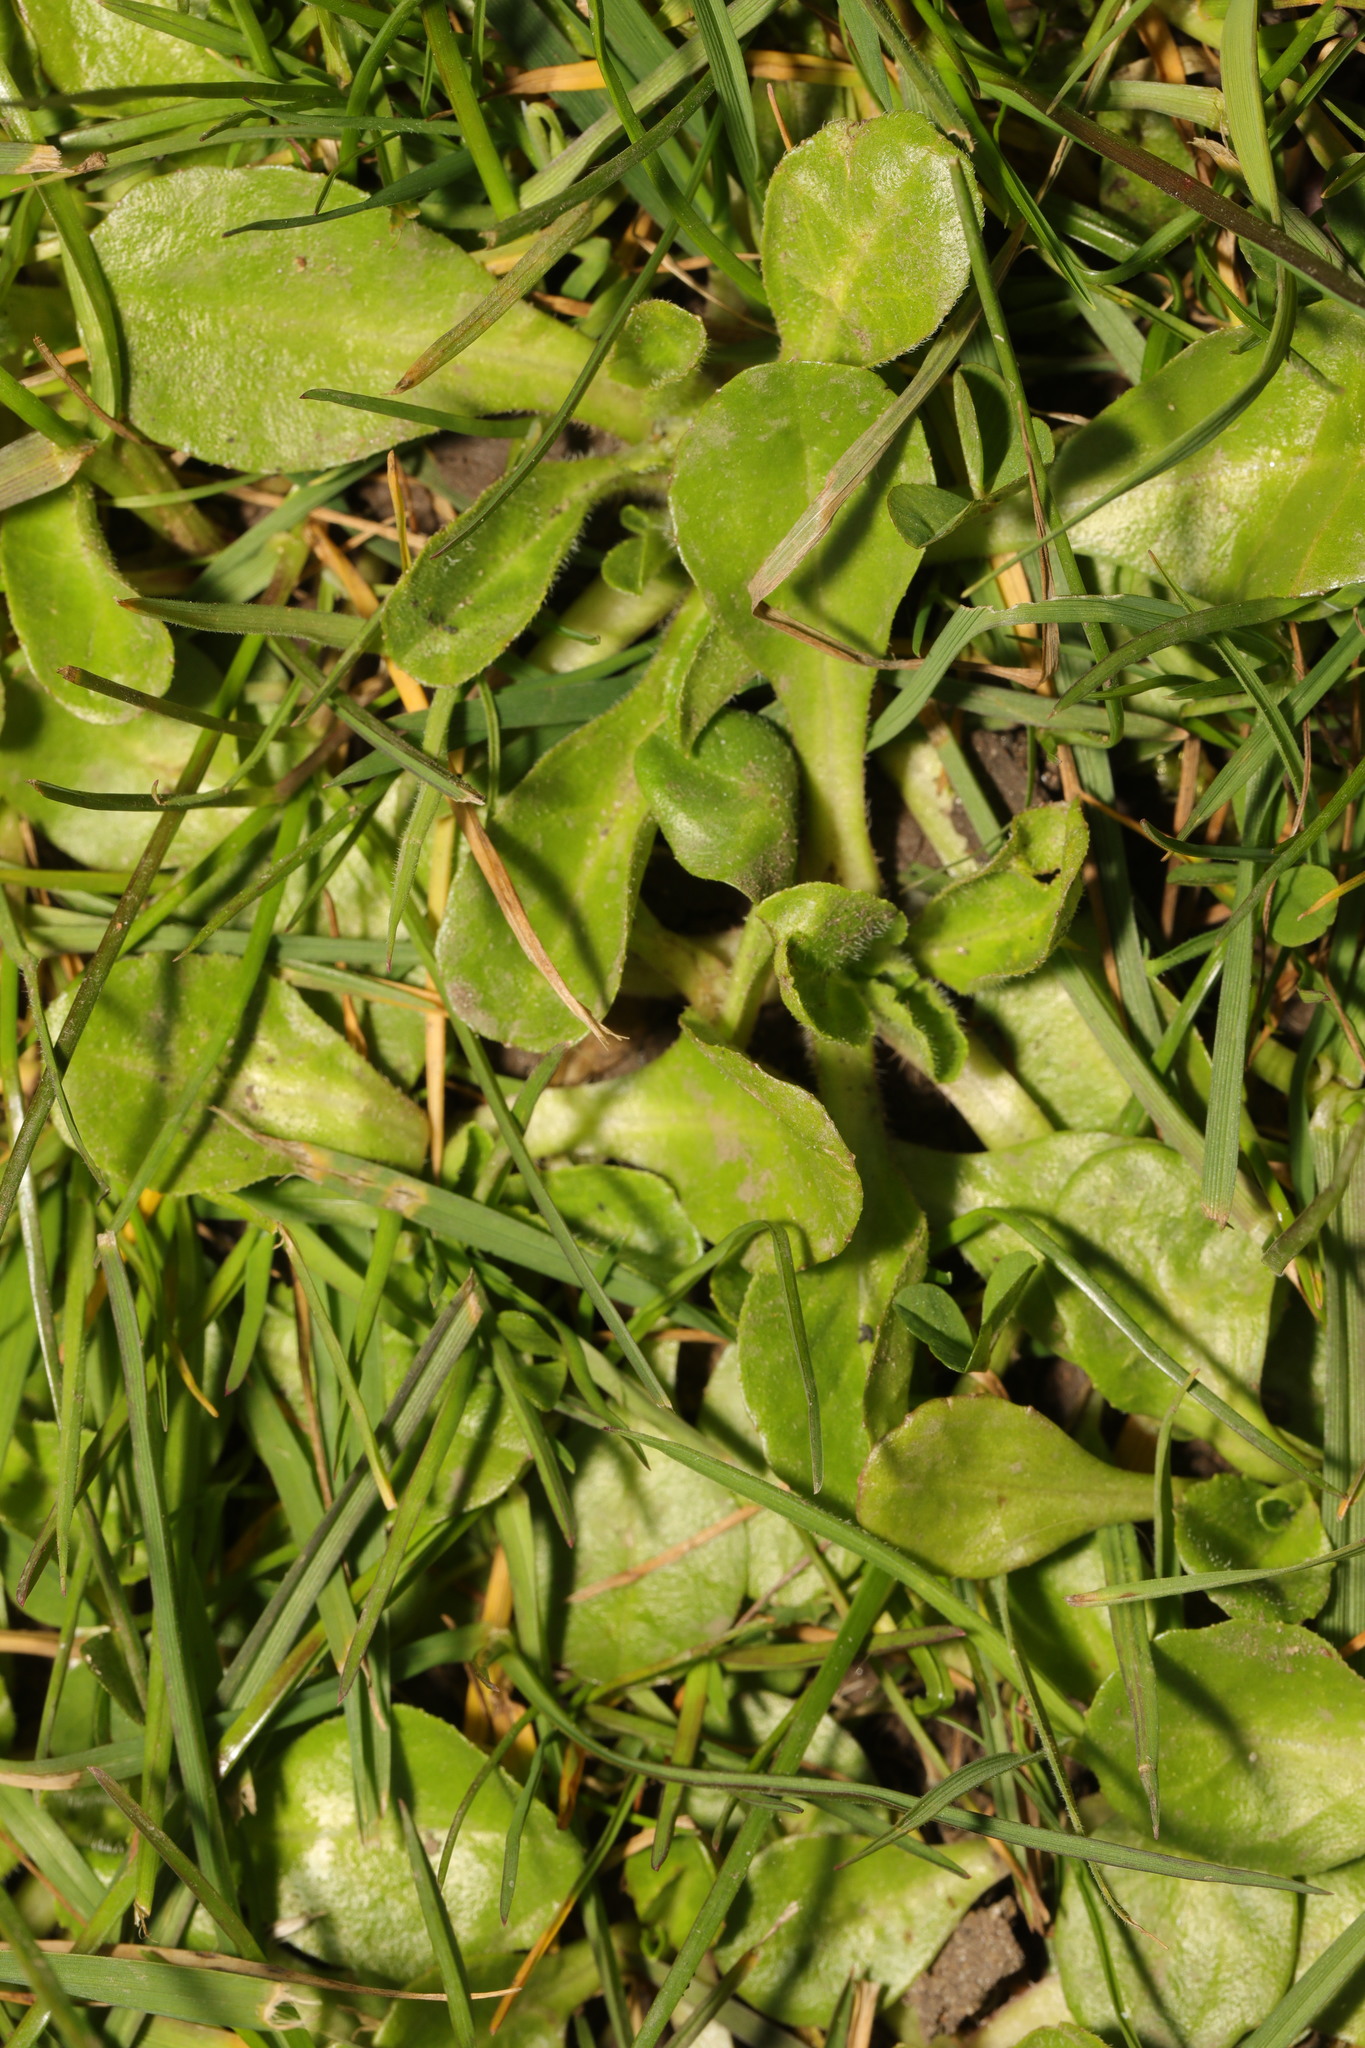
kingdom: Plantae
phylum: Tracheophyta
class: Magnoliopsida
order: Asterales
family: Asteraceae
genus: Bellis
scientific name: Bellis perennis
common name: Lawndaisy
